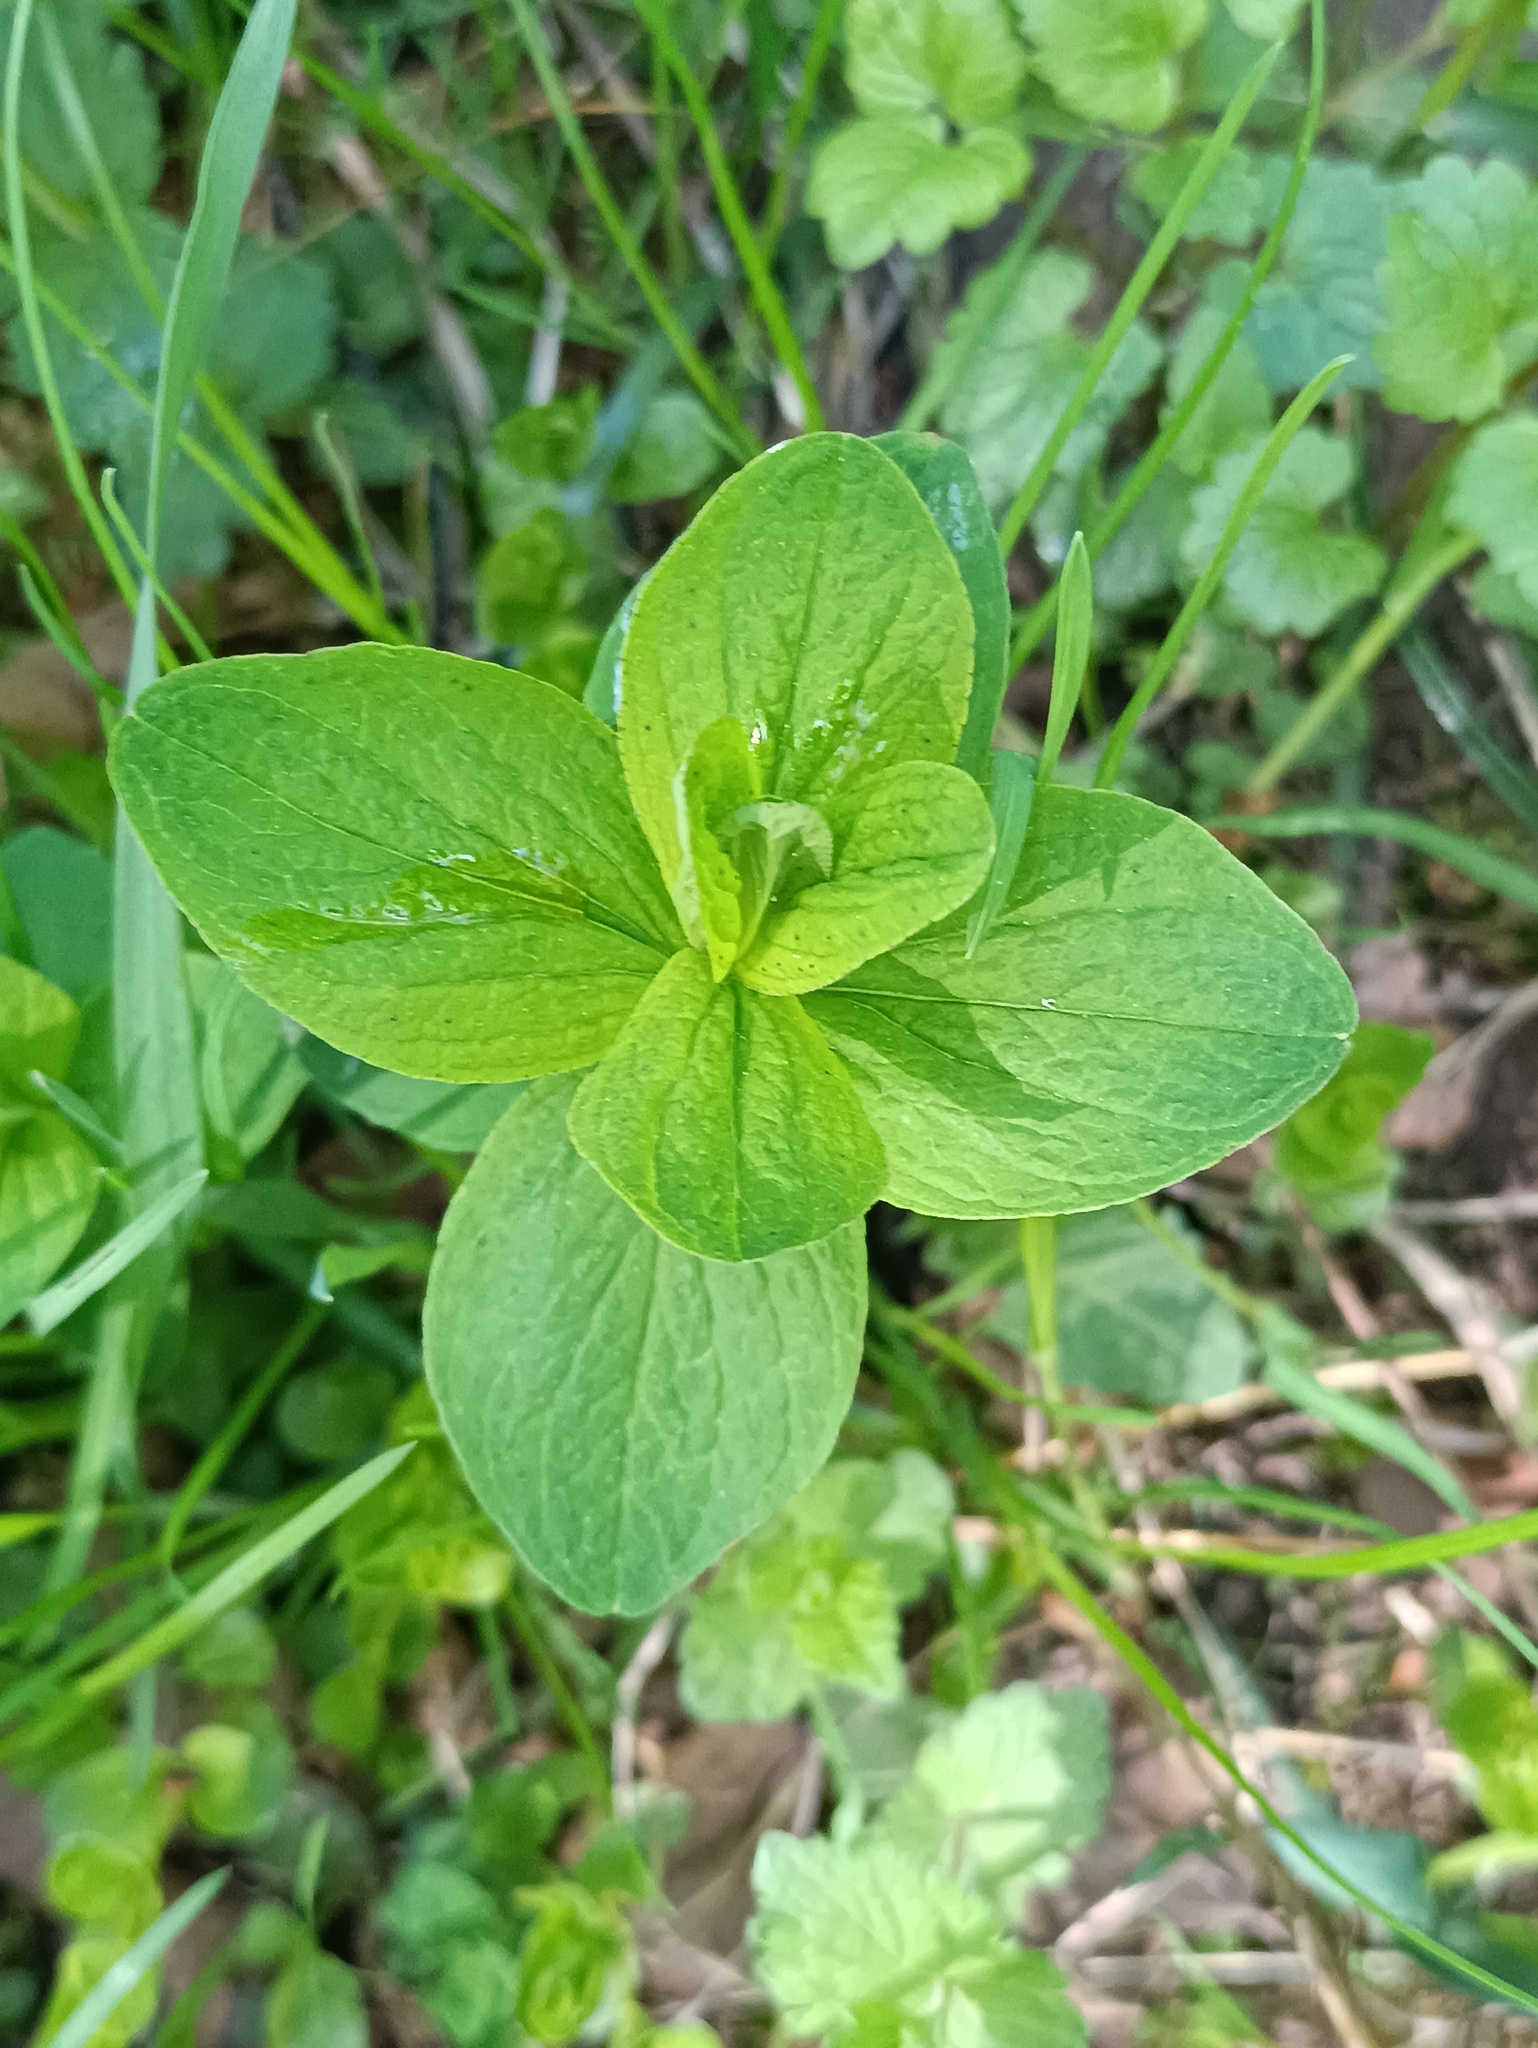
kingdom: Plantae
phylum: Tracheophyta
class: Magnoliopsida
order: Malpighiales
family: Hypericaceae
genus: Hypericum
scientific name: Hypericum maculatum
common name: Imperforate st. john's-wort
